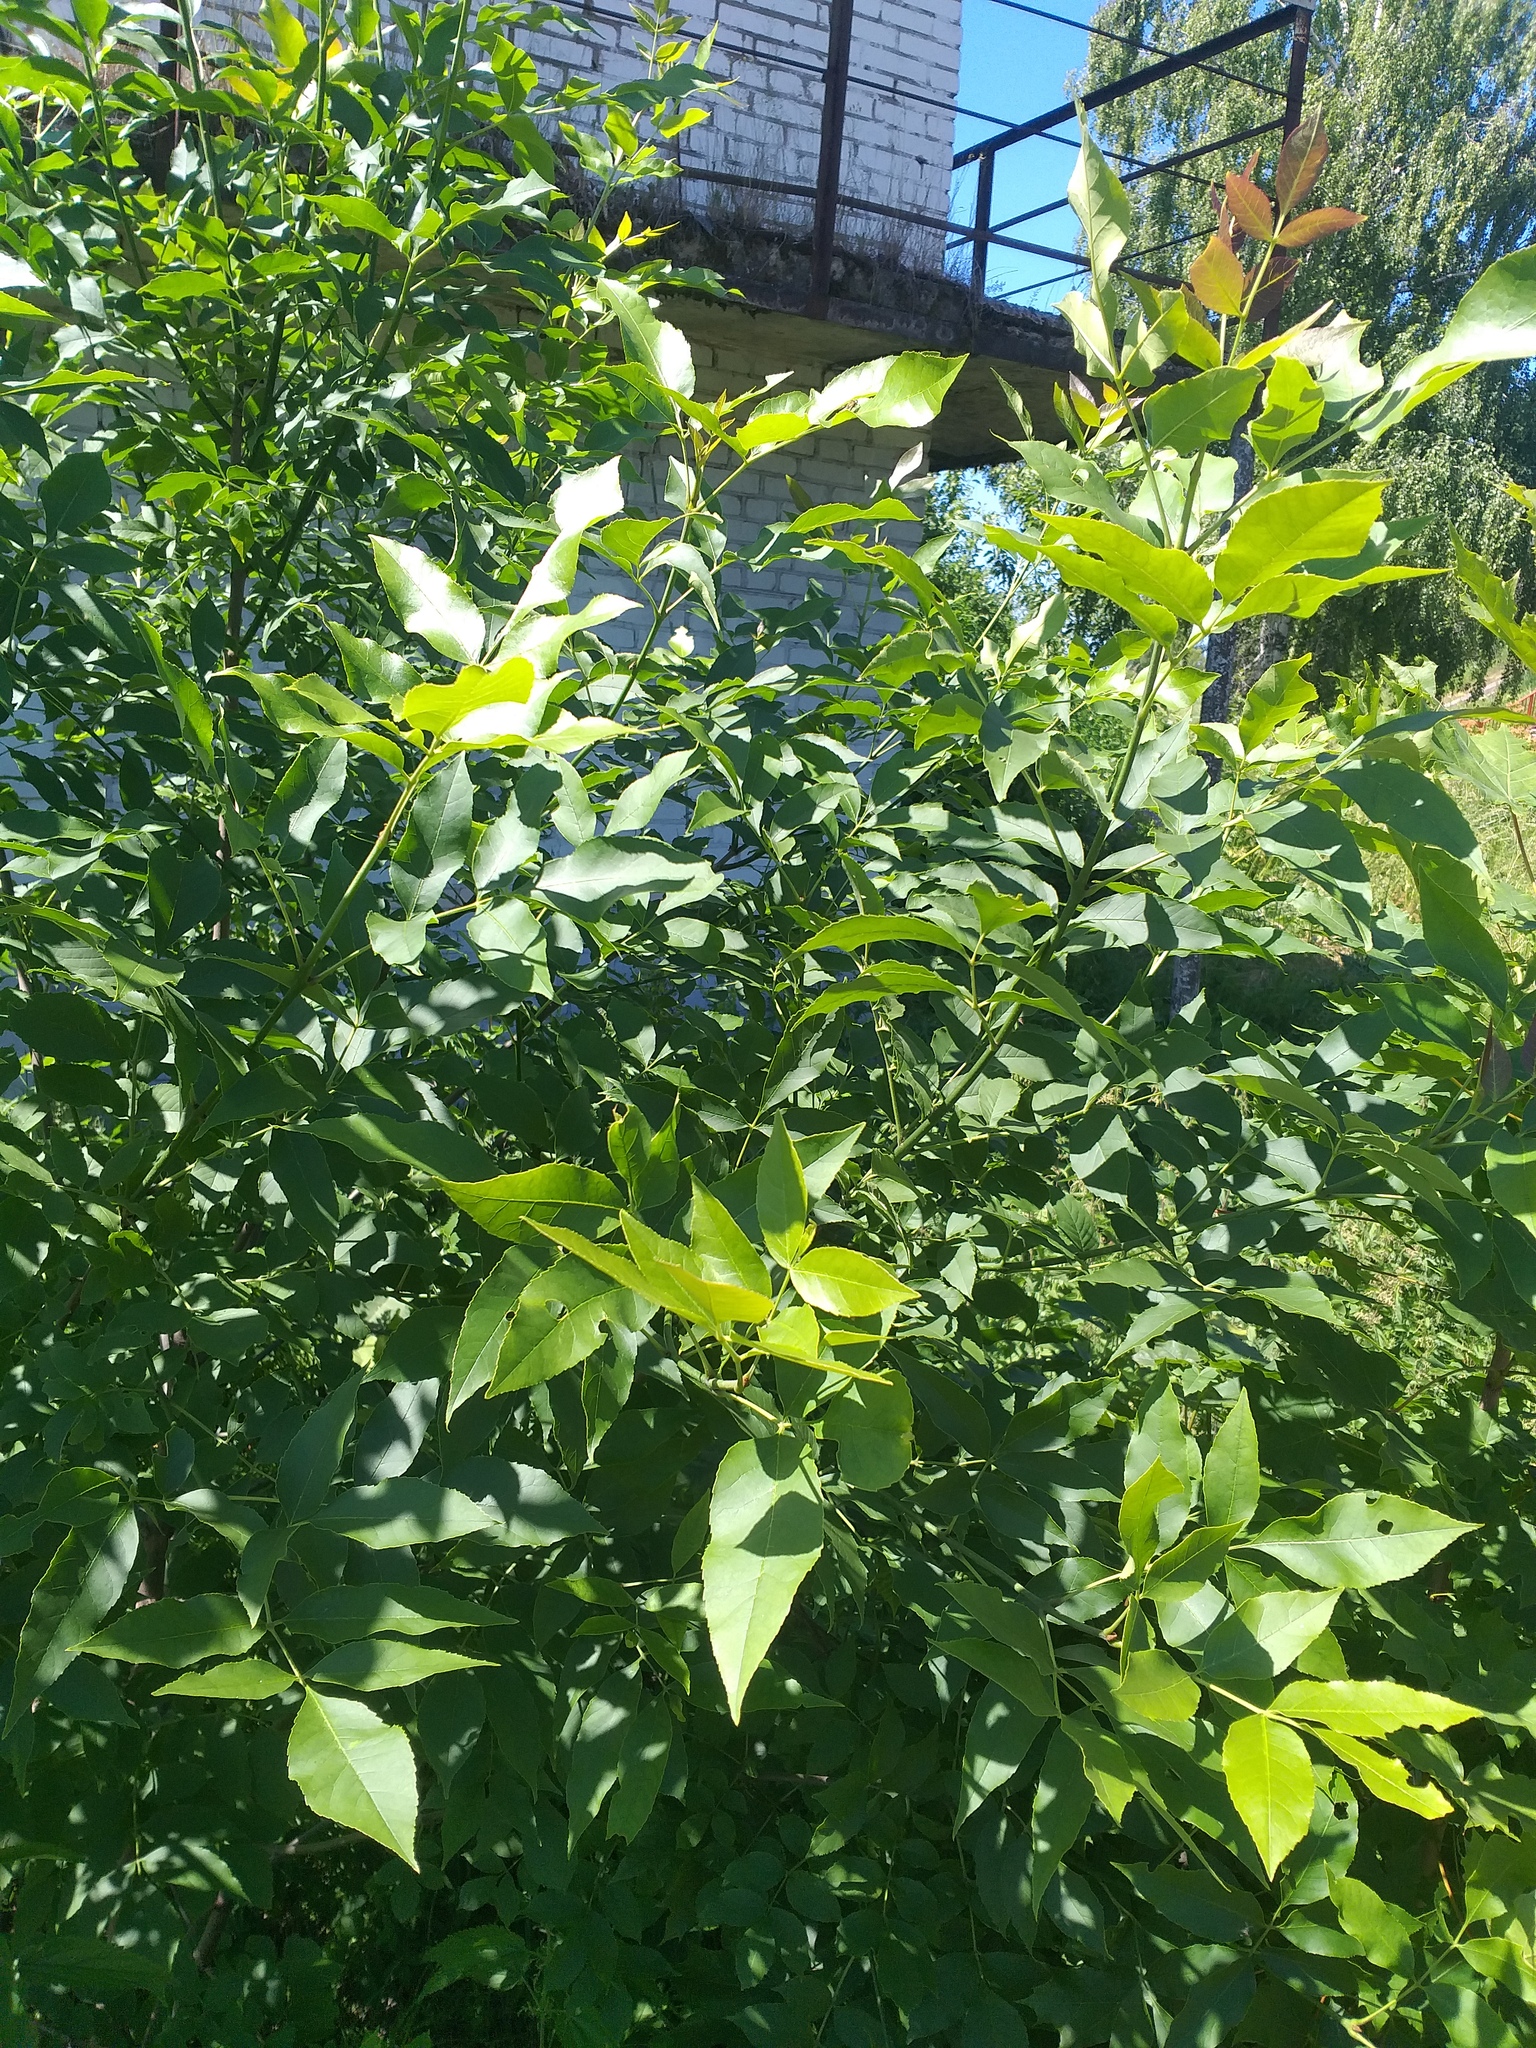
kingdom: Plantae
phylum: Tracheophyta
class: Magnoliopsida
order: Lamiales
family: Oleaceae
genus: Fraxinus
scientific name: Fraxinus pennsylvanica
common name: Green ash
